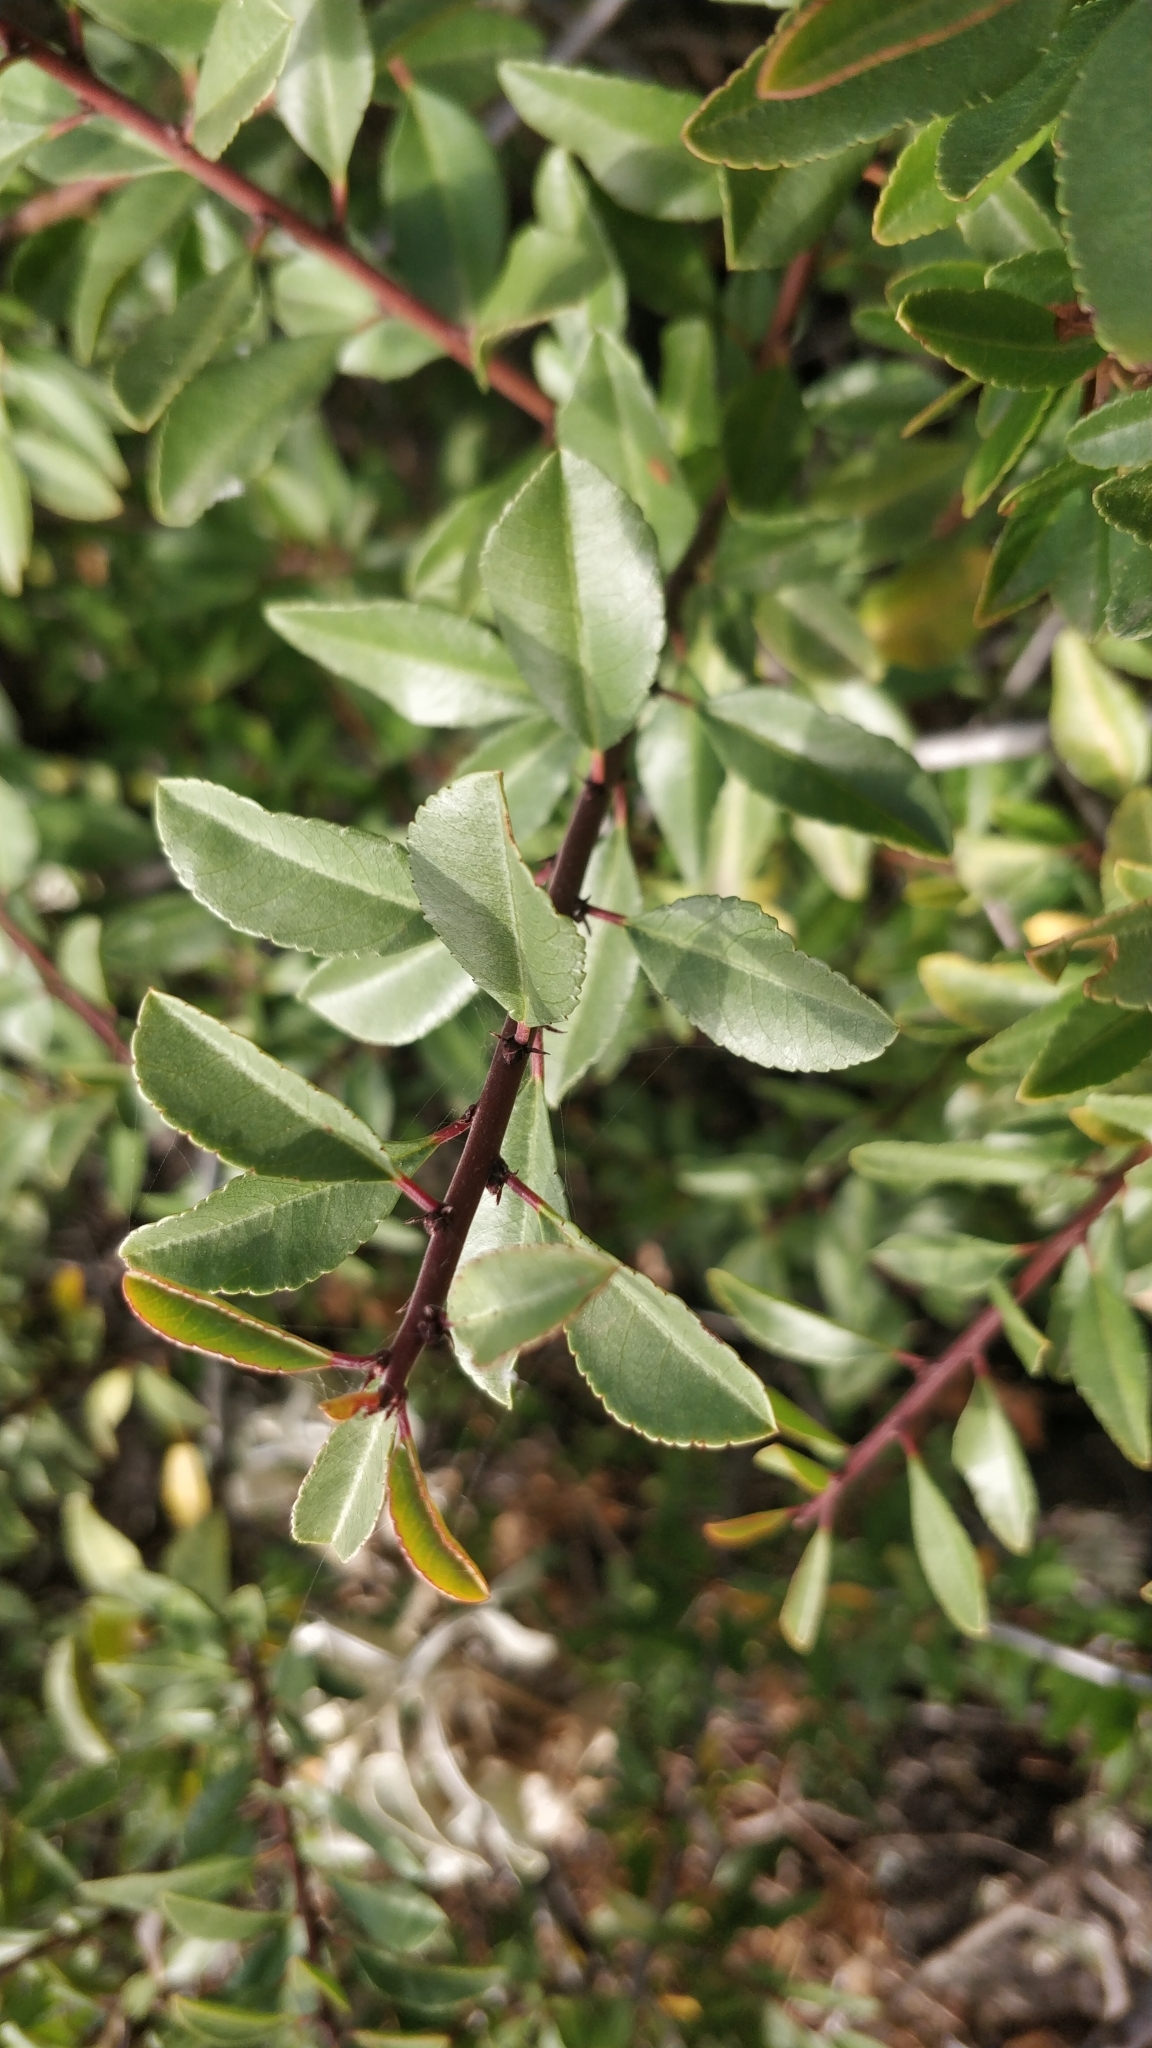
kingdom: Plantae
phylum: Tracheophyta
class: Magnoliopsida
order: Rosales
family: Rhamnaceae
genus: Rhamnus
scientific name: Rhamnus crenulata
